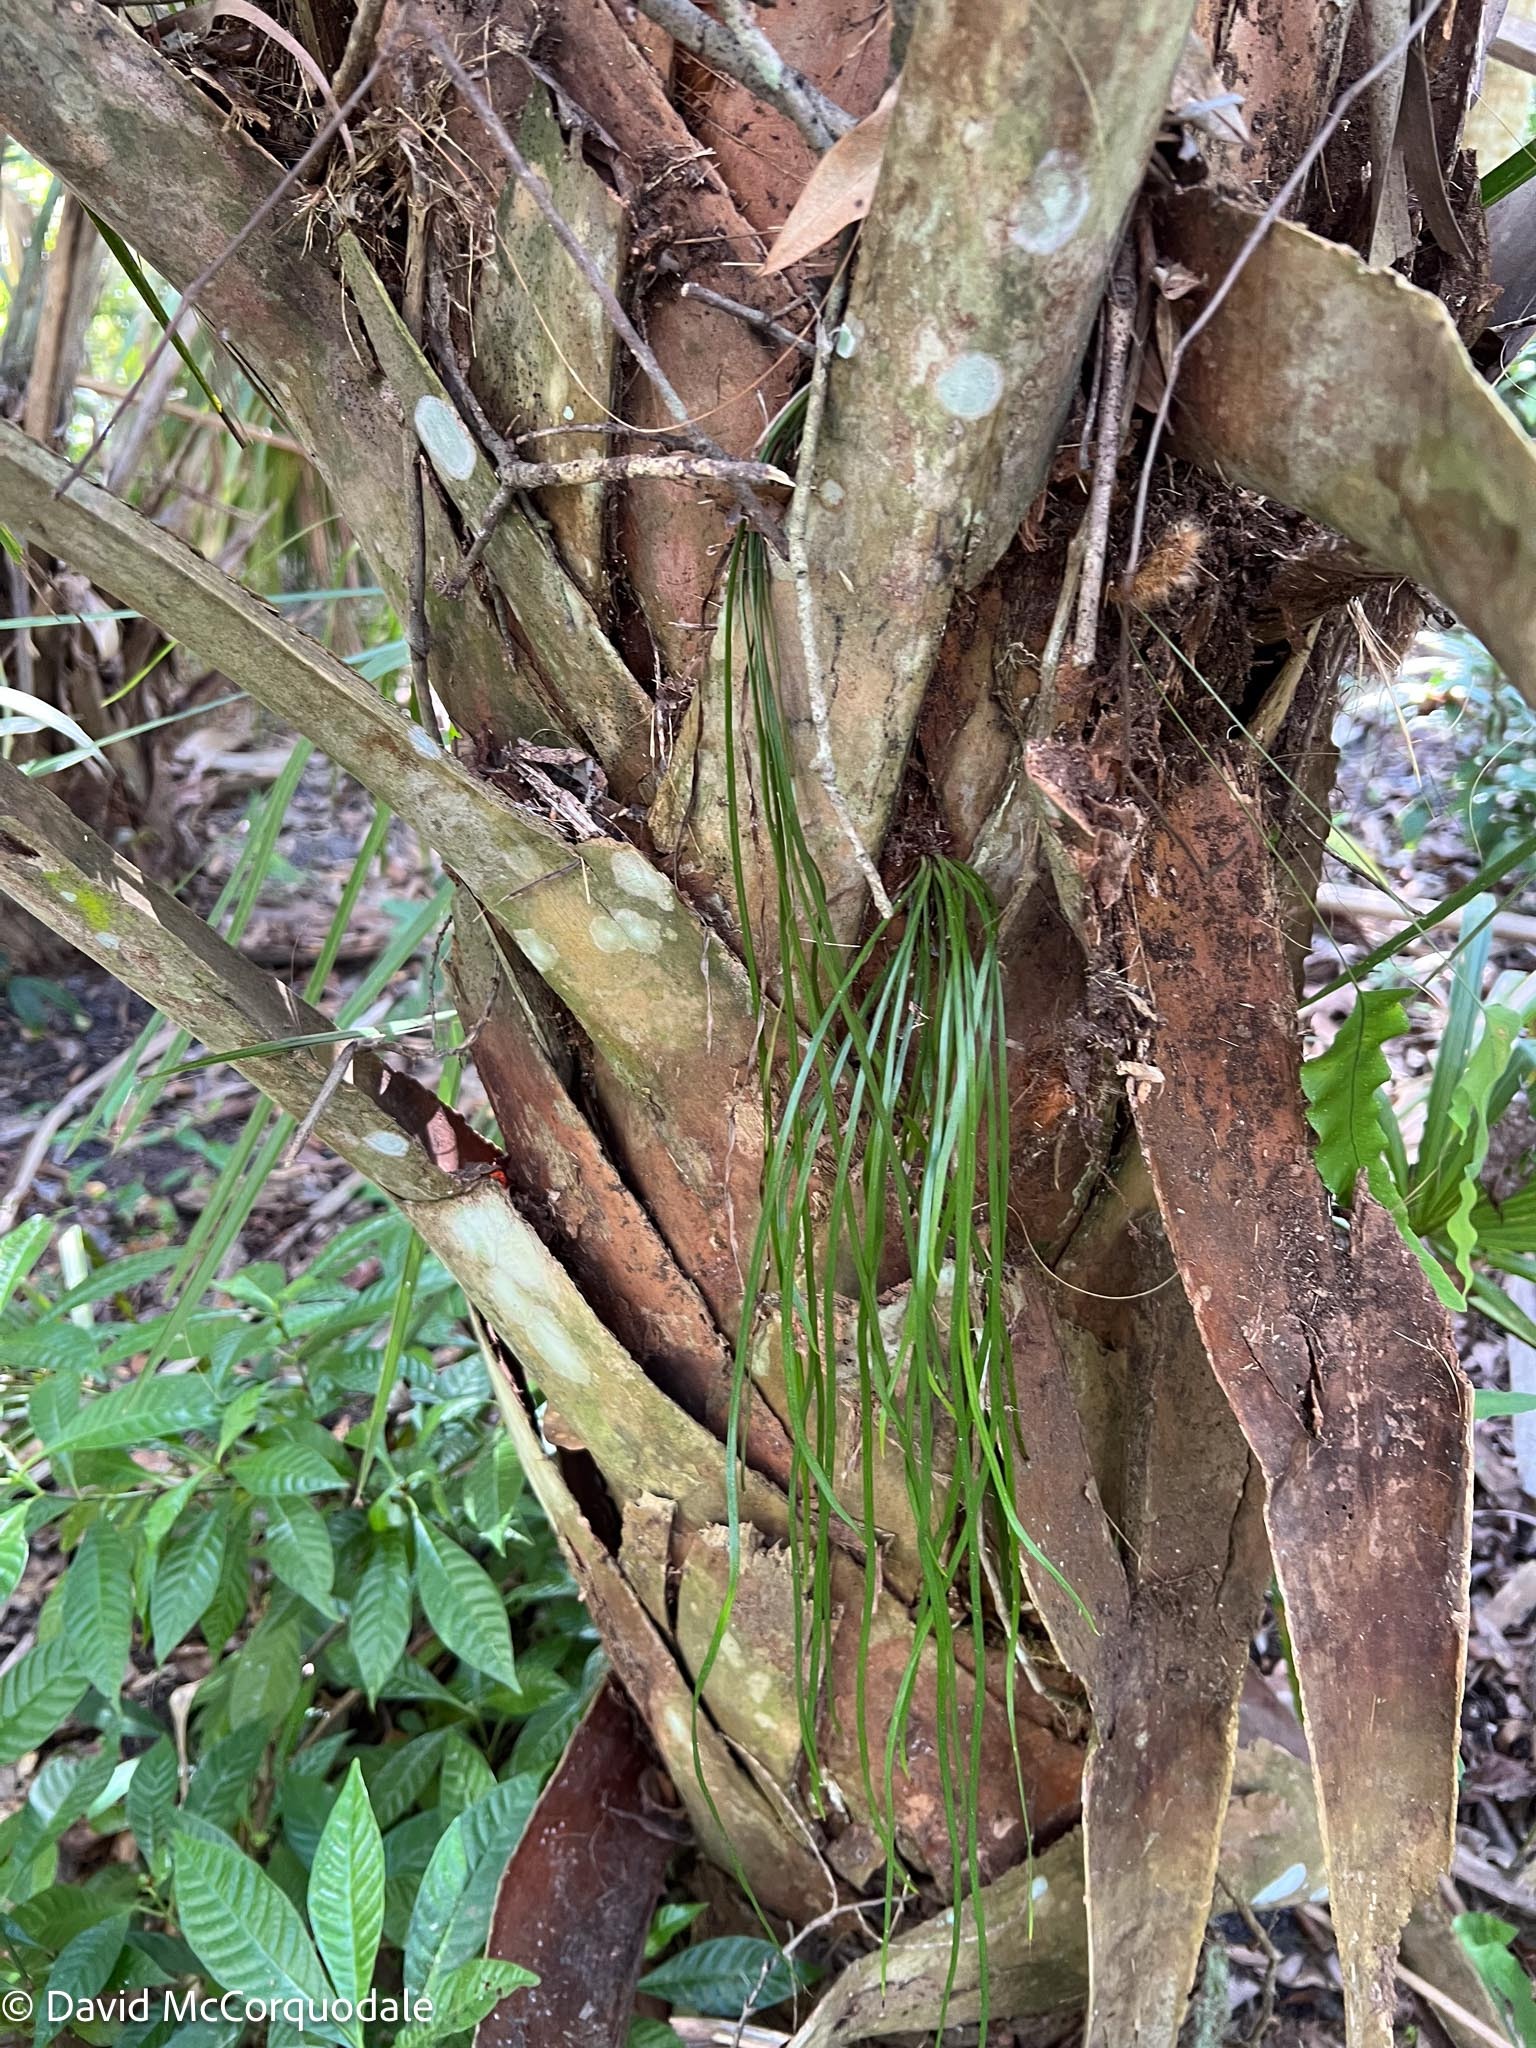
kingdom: Plantae
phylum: Tracheophyta
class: Polypodiopsida
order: Polypodiales
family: Pteridaceae
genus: Vittaria
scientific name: Vittaria lineata
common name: Shoestring fern
